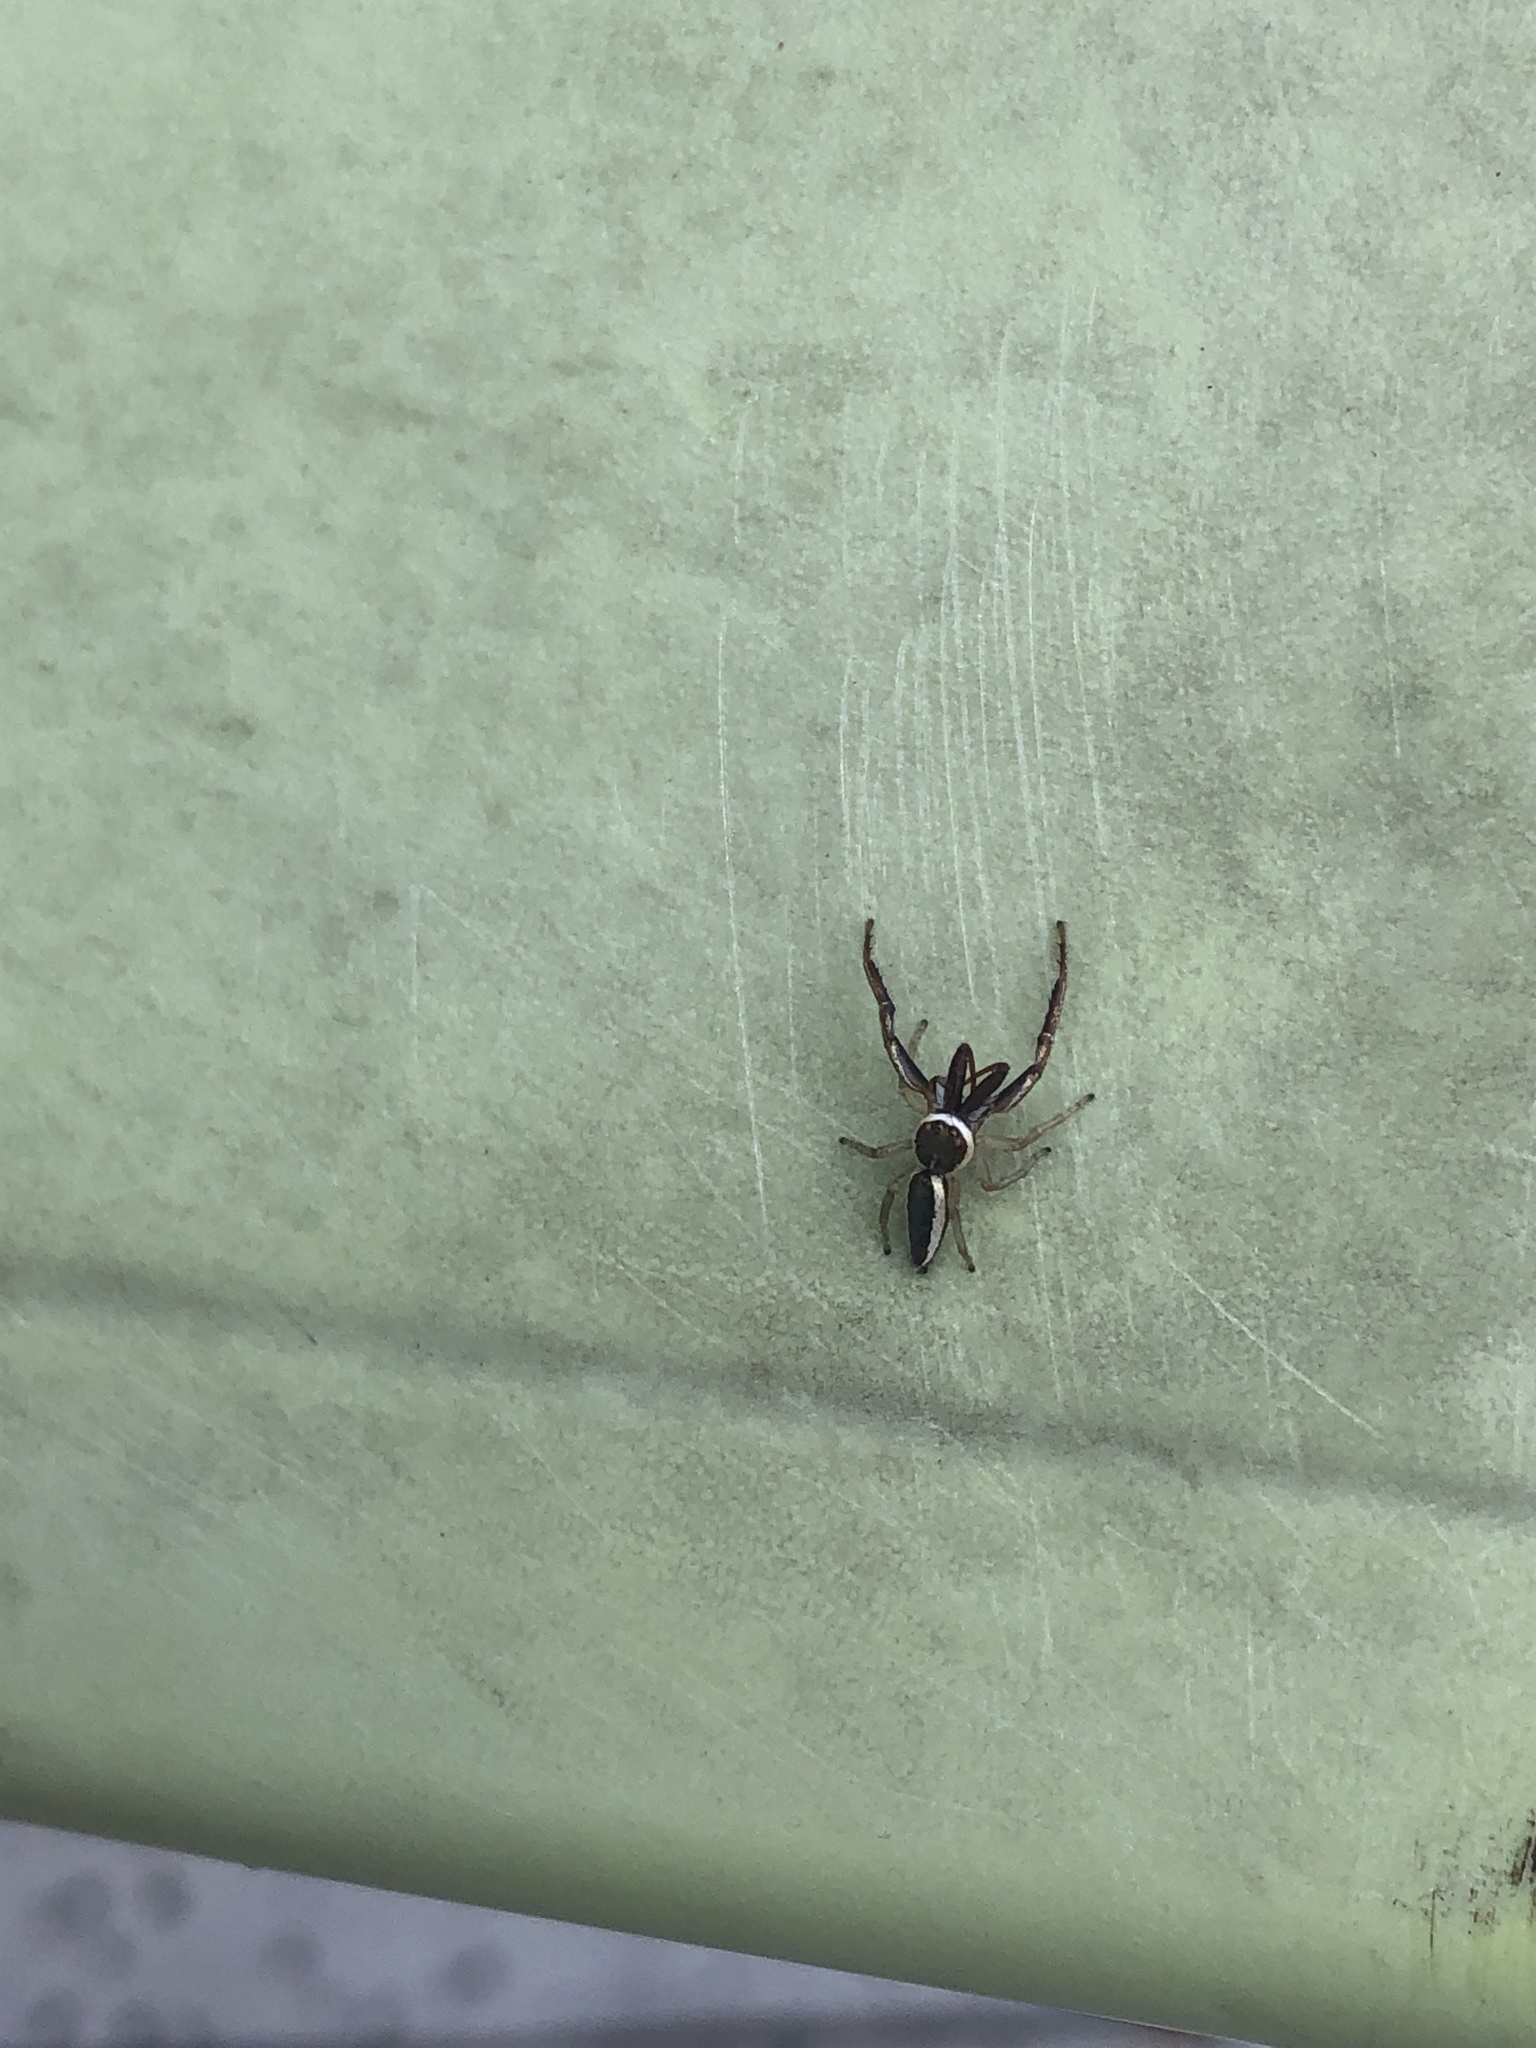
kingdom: Animalia
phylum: Arthropoda
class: Arachnida
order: Araneae
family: Salticidae
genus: Hentzia
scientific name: Hentzia palmarum
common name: Common hentz jumping spider
